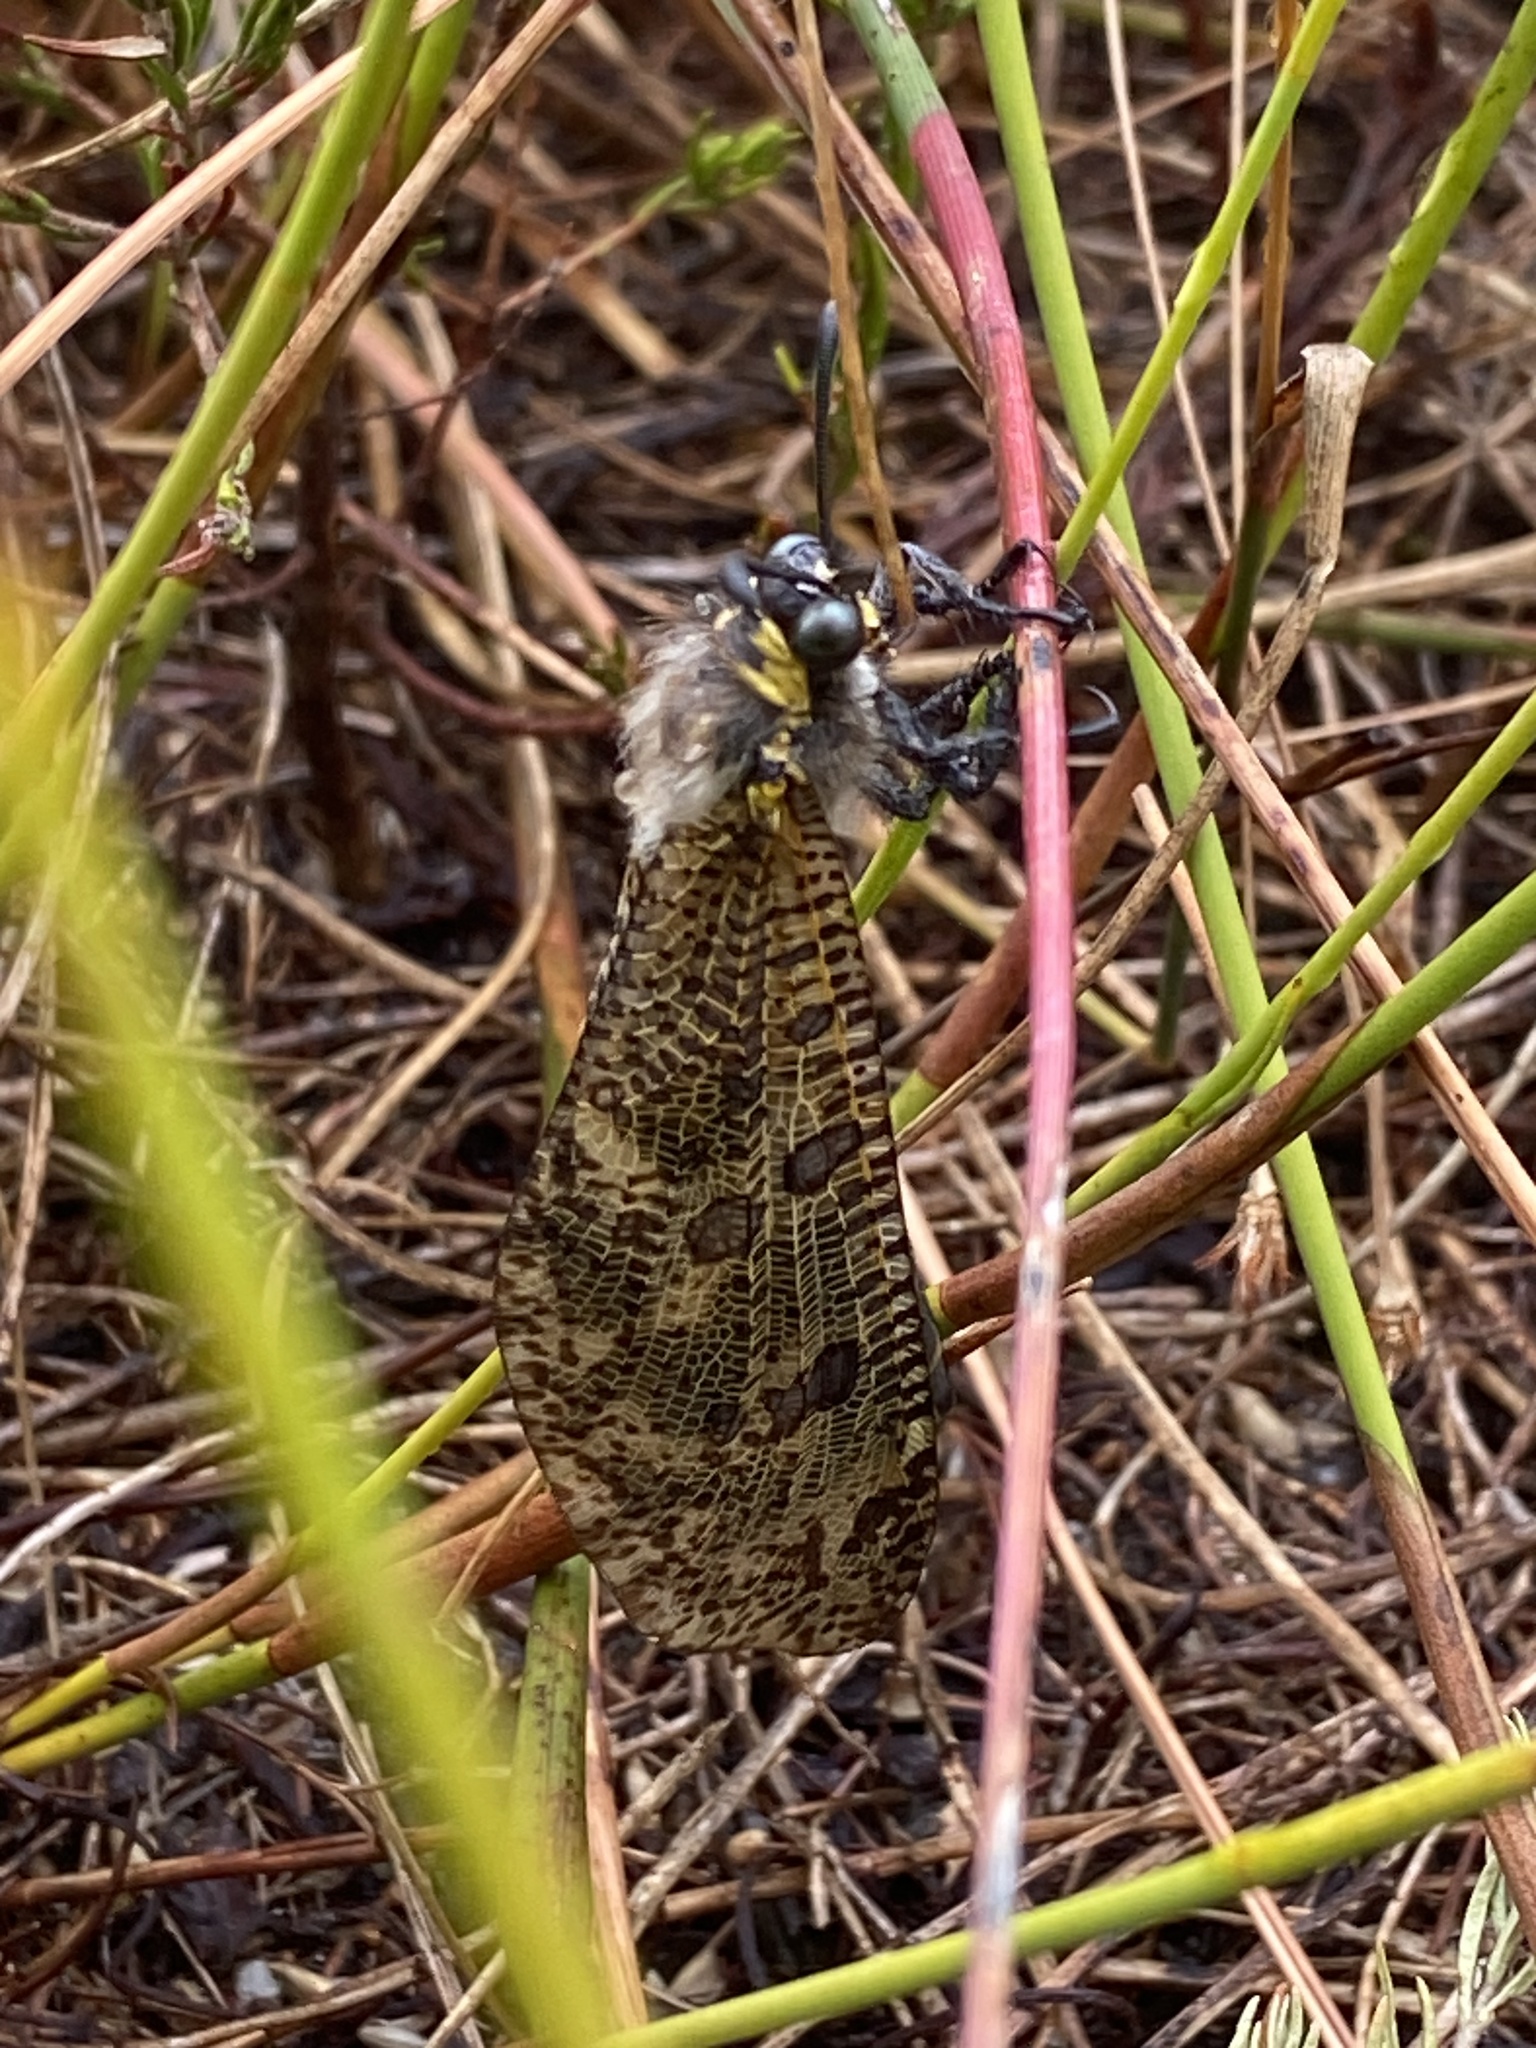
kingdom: Animalia
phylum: Arthropoda
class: Insecta
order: Neuroptera
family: Myrmeleontidae
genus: Palpares
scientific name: Palpares speciosus
